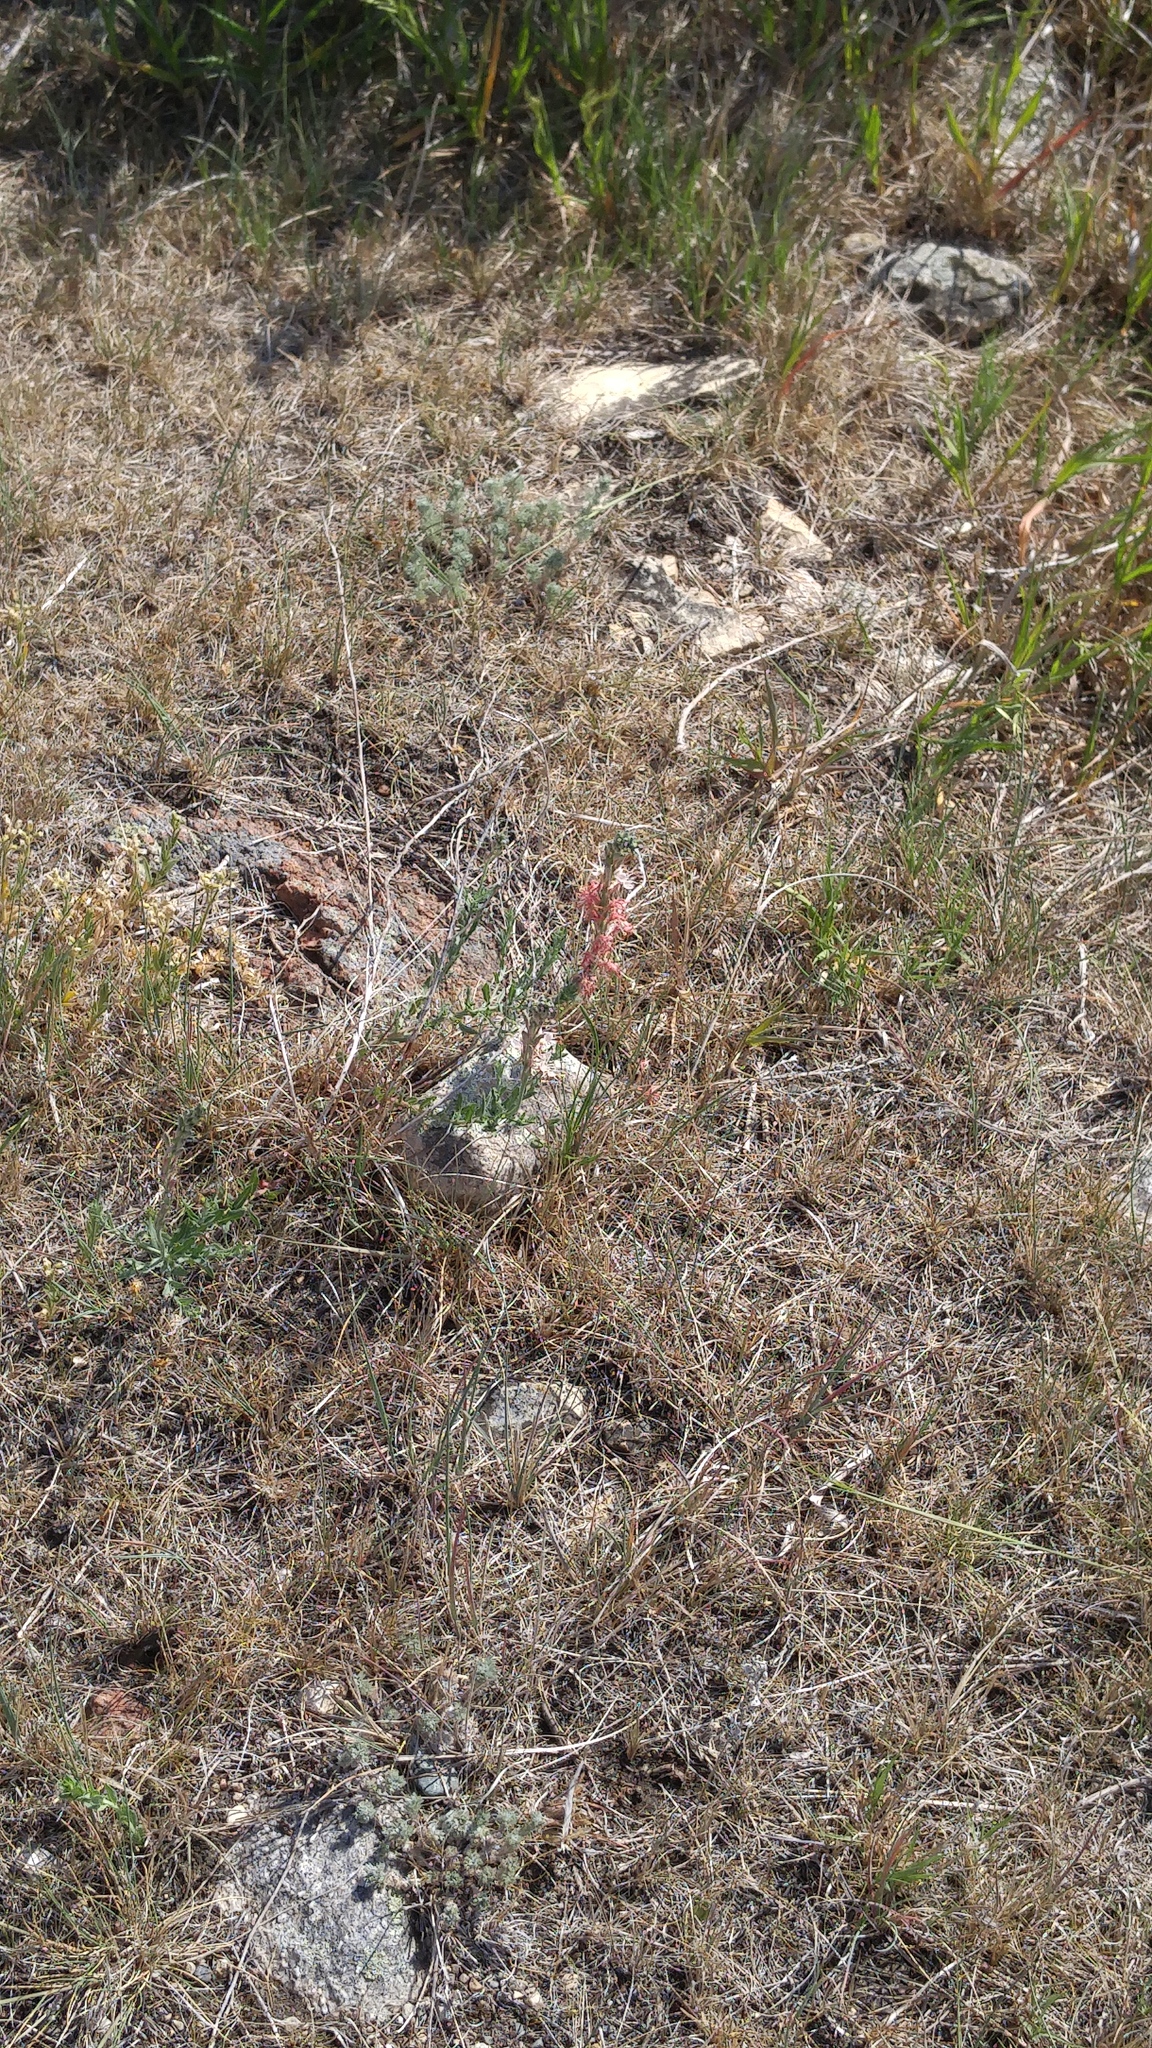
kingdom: Plantae
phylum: Tracheophyta
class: Magnoliopsida
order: Myrtales
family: Onagraceae
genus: Oenothera
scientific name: Oenothera suffrutescens
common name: Scarlet beeblossom
